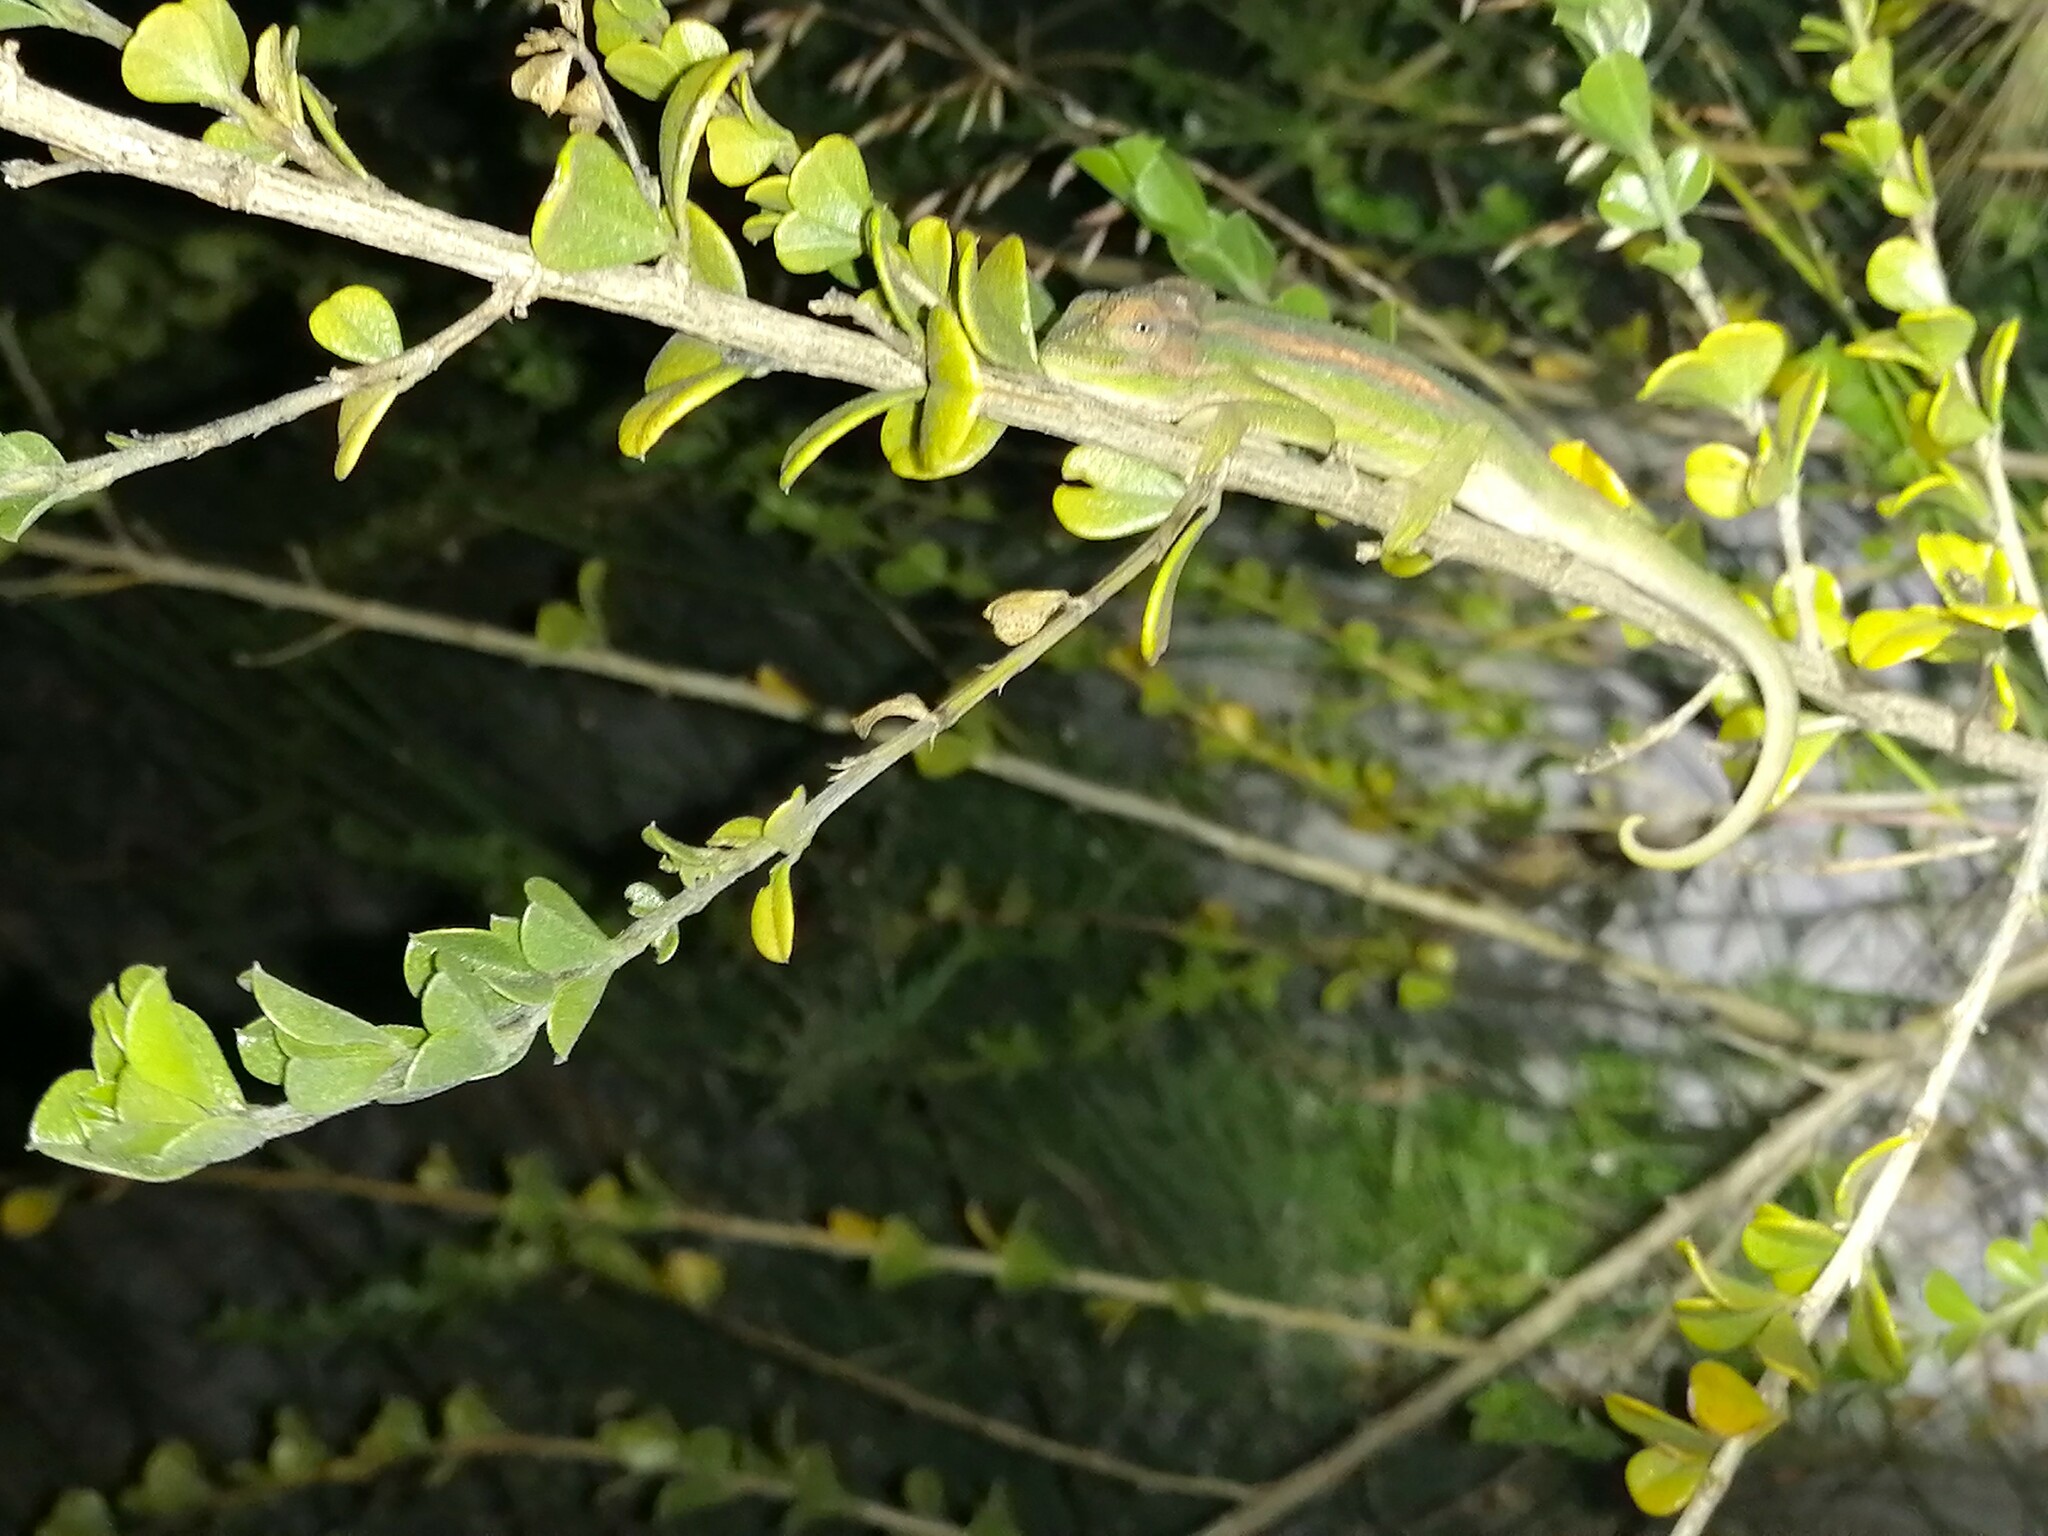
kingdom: Animalia
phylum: Chordata
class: Squamata
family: Chamaeleonidae
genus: Bradypodion
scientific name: Bradypodion pumilum
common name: Cape dwarf chameleon
